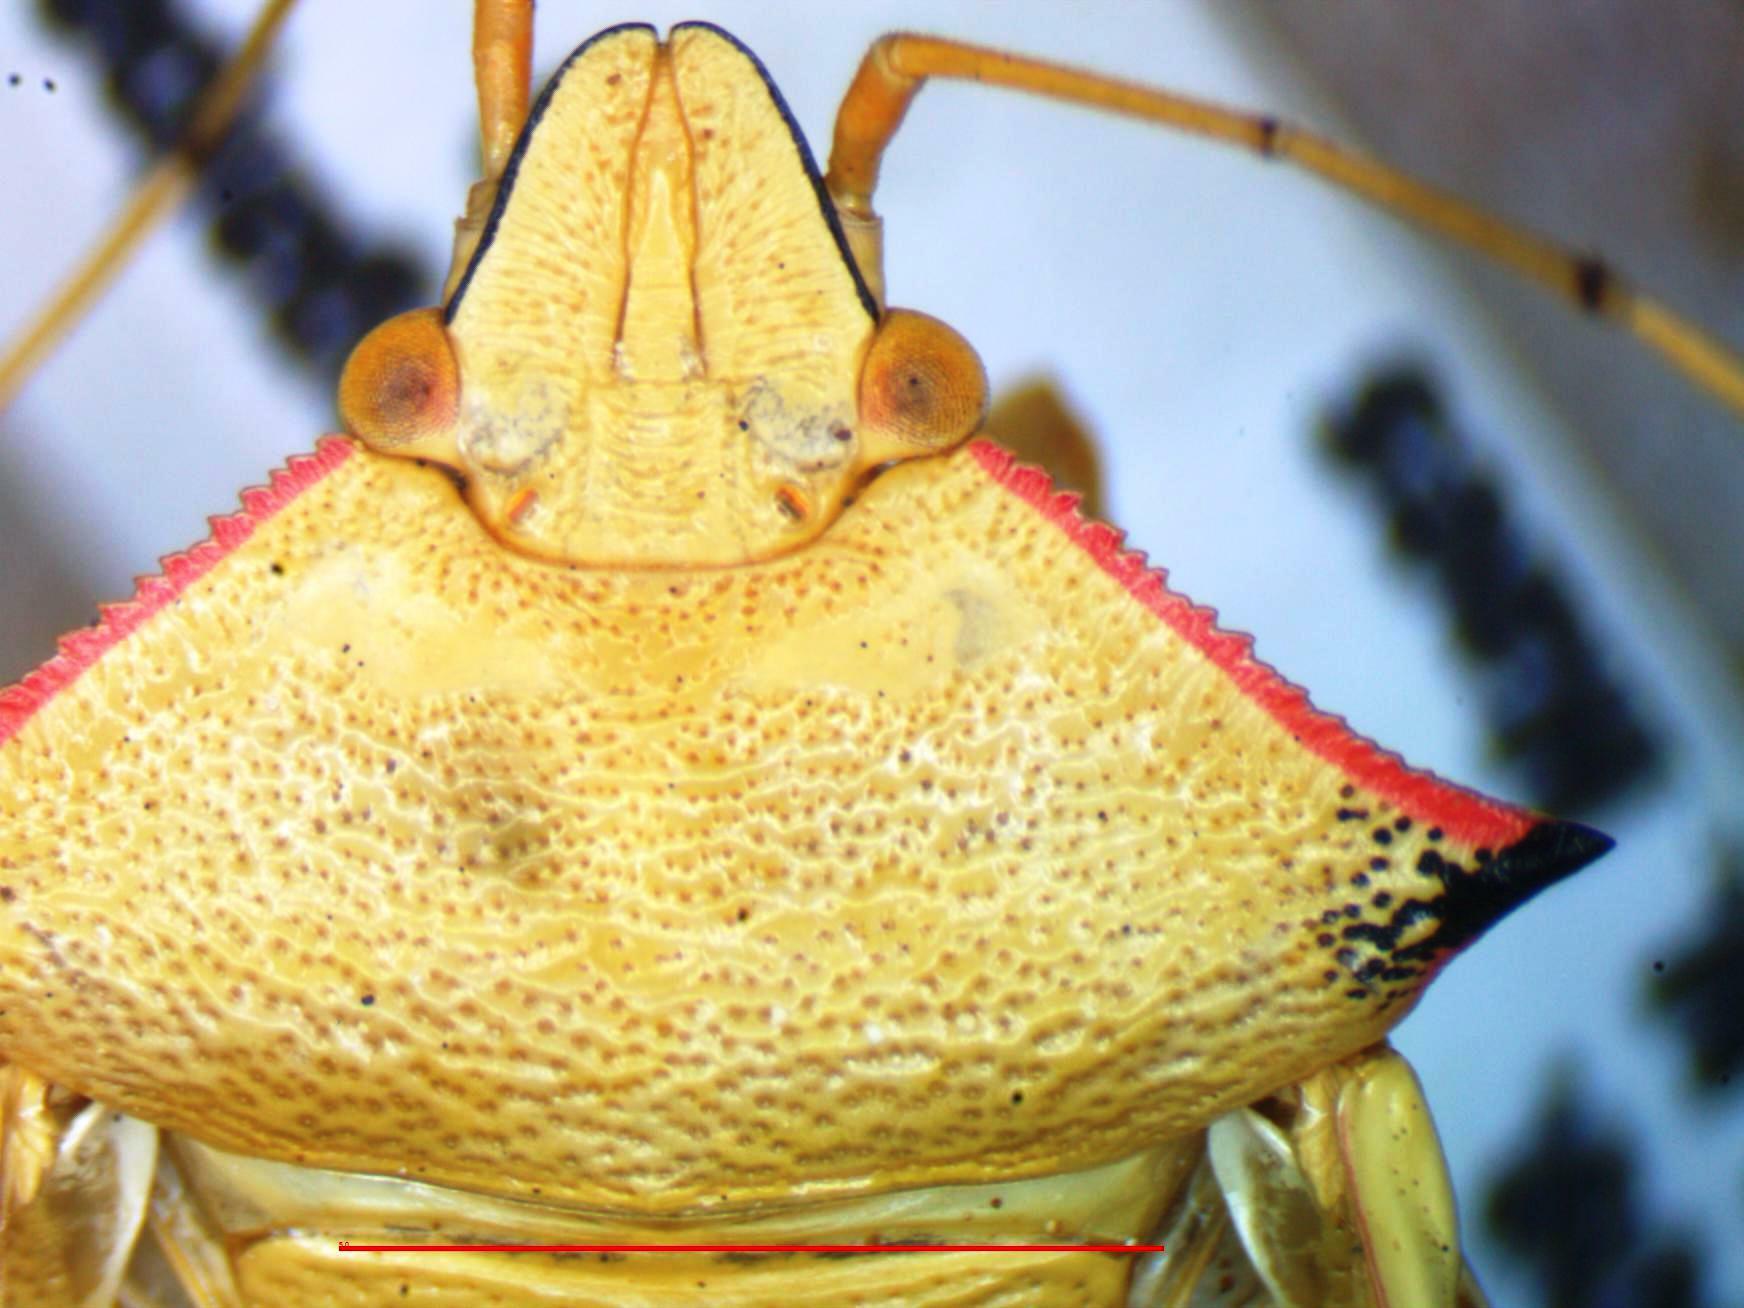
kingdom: Animalia
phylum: Arthropoda
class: Insecta
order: Hemiptera
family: Pentatomidae
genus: Chlorocoris
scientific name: Chlorocoris rufispinus
